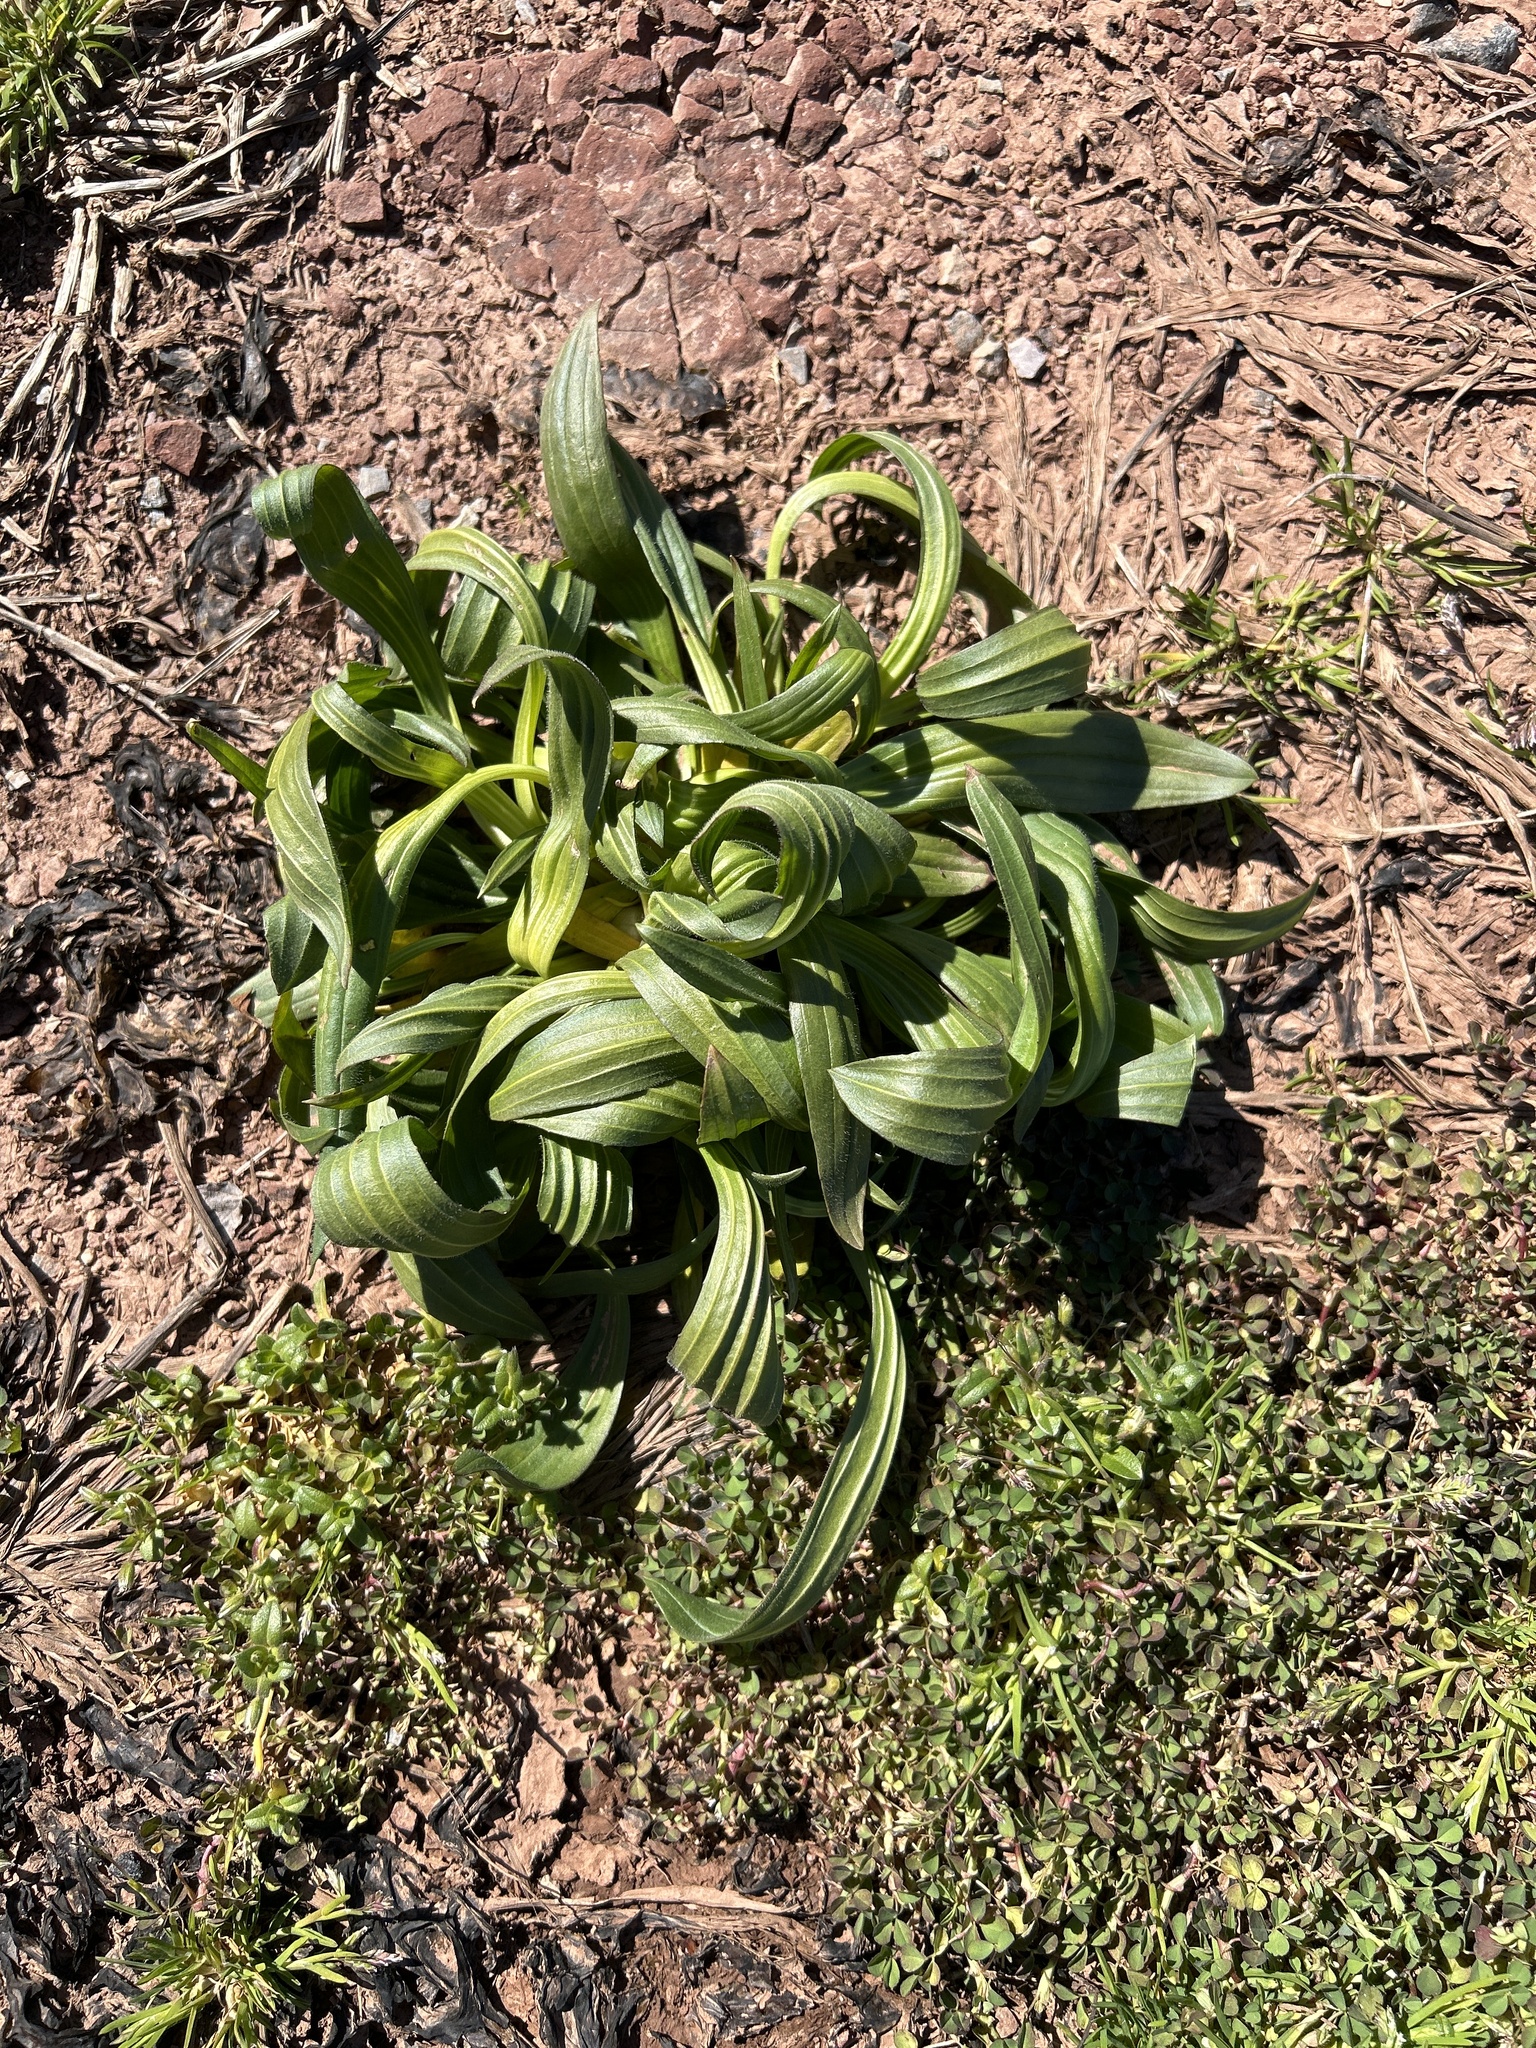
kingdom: Plantae
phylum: Tracheophyta
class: Magnoliopsida
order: Lamiales
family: Plantaginaceae
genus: Plantago
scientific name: Plantago lanceolata
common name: Ribwort plantain
